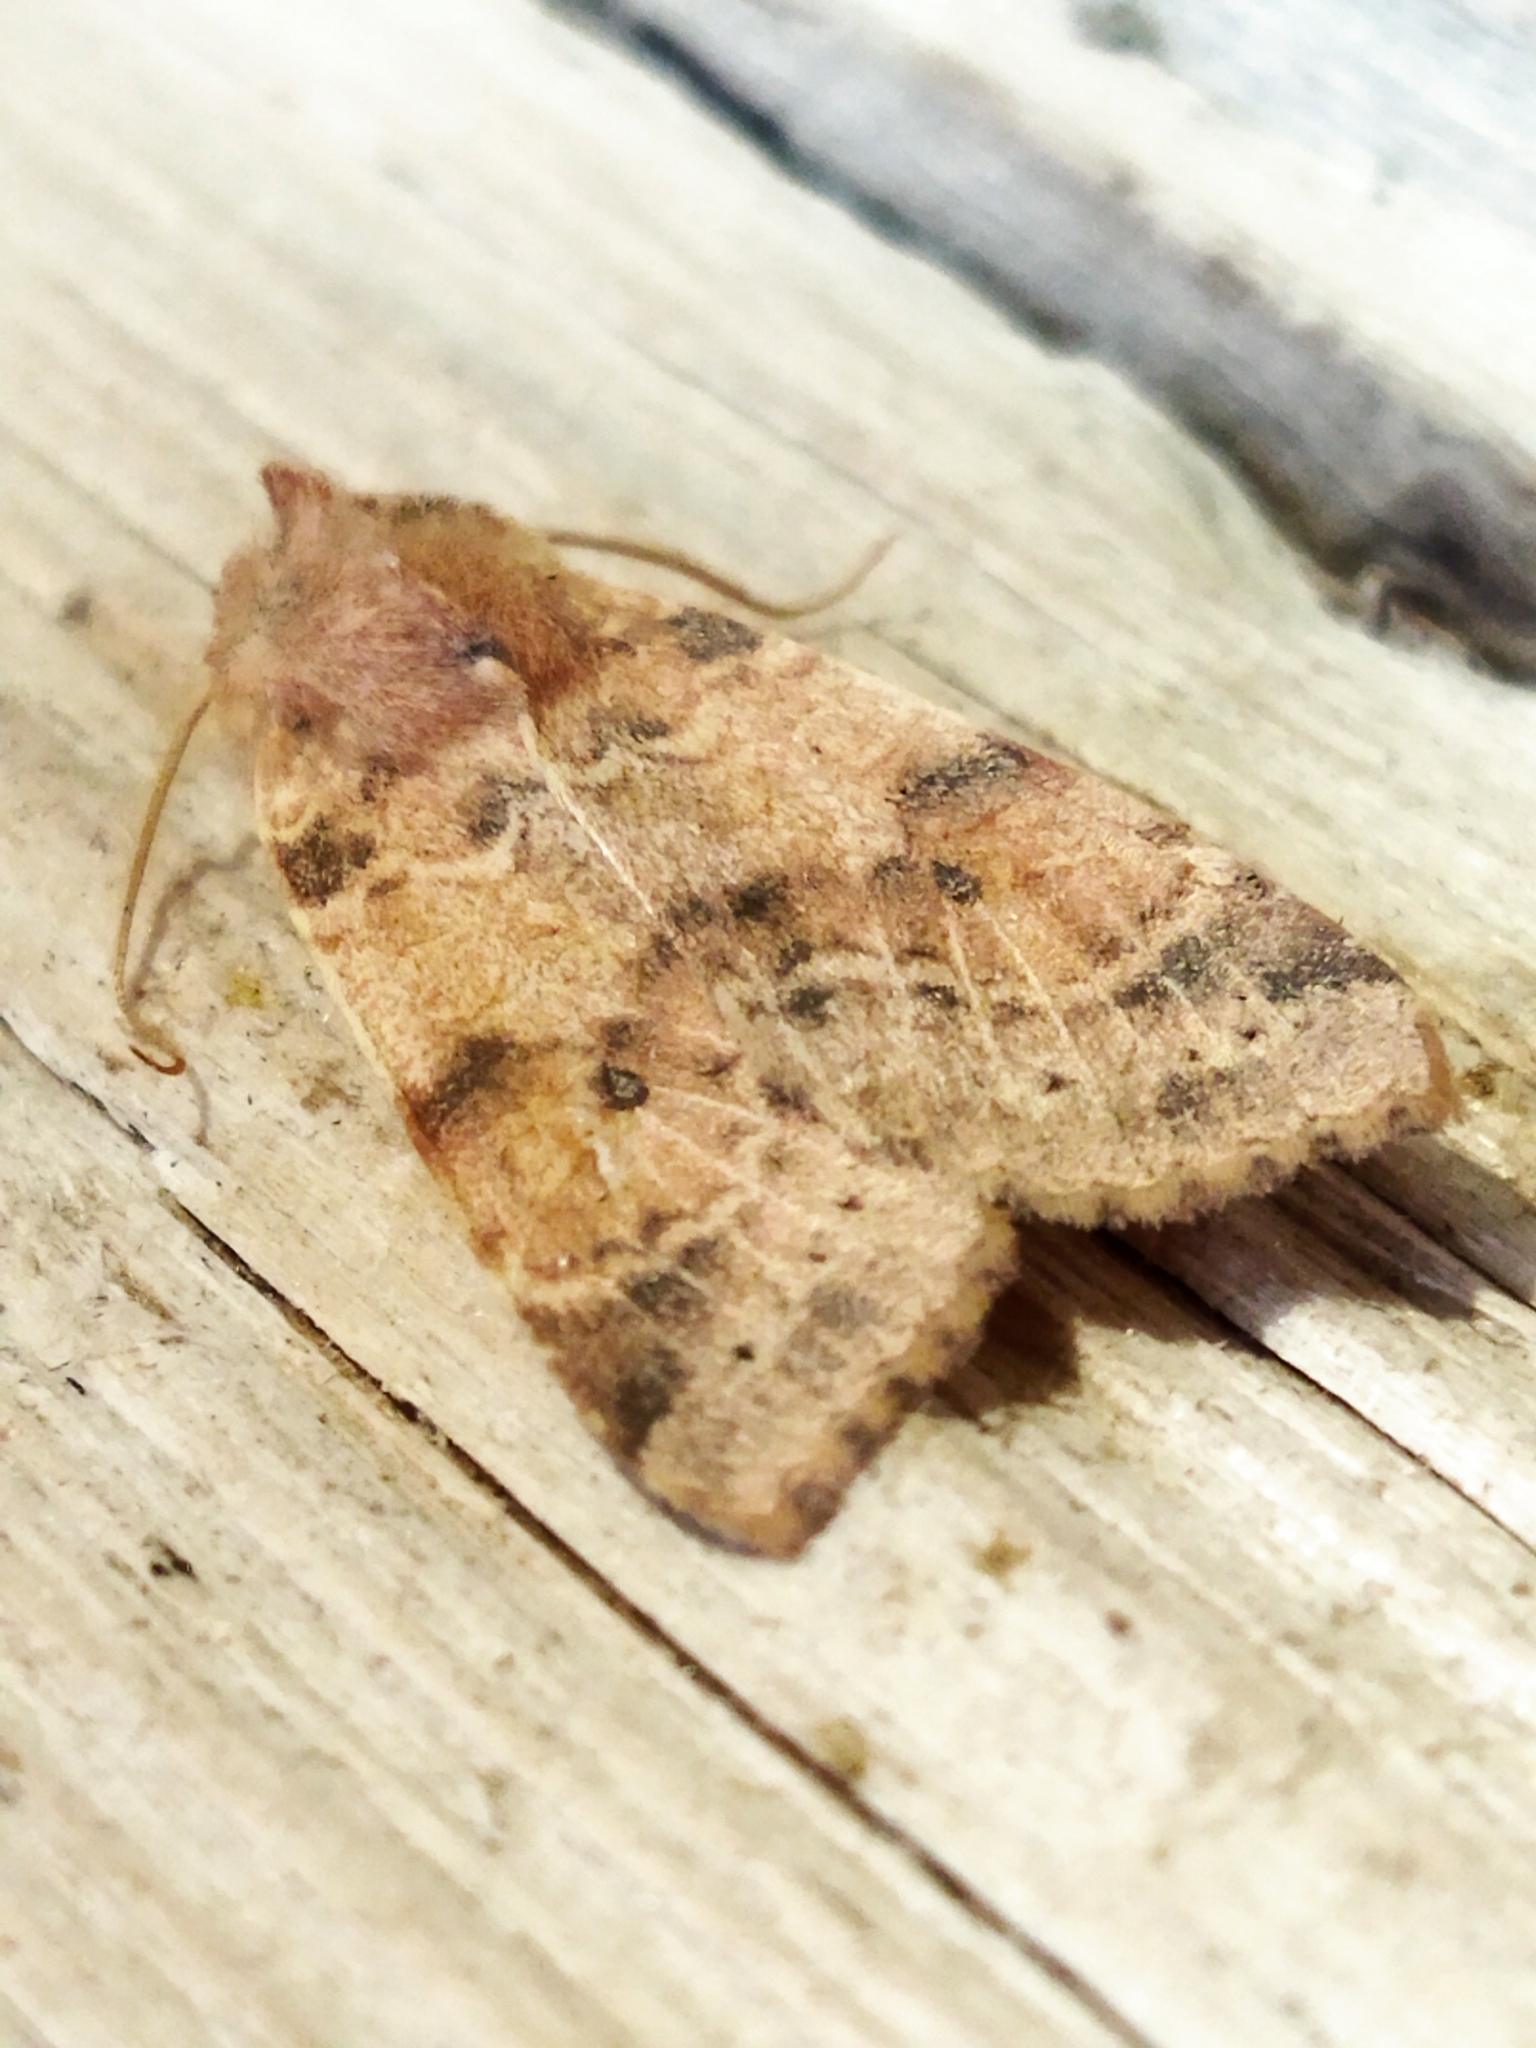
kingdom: Animalia
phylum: Arthropoda
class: Insecta
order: Lepidoptera
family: Noctuidae
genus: Xanthia
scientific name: Xanthia ocellaris
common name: Pale-lemon sallow
